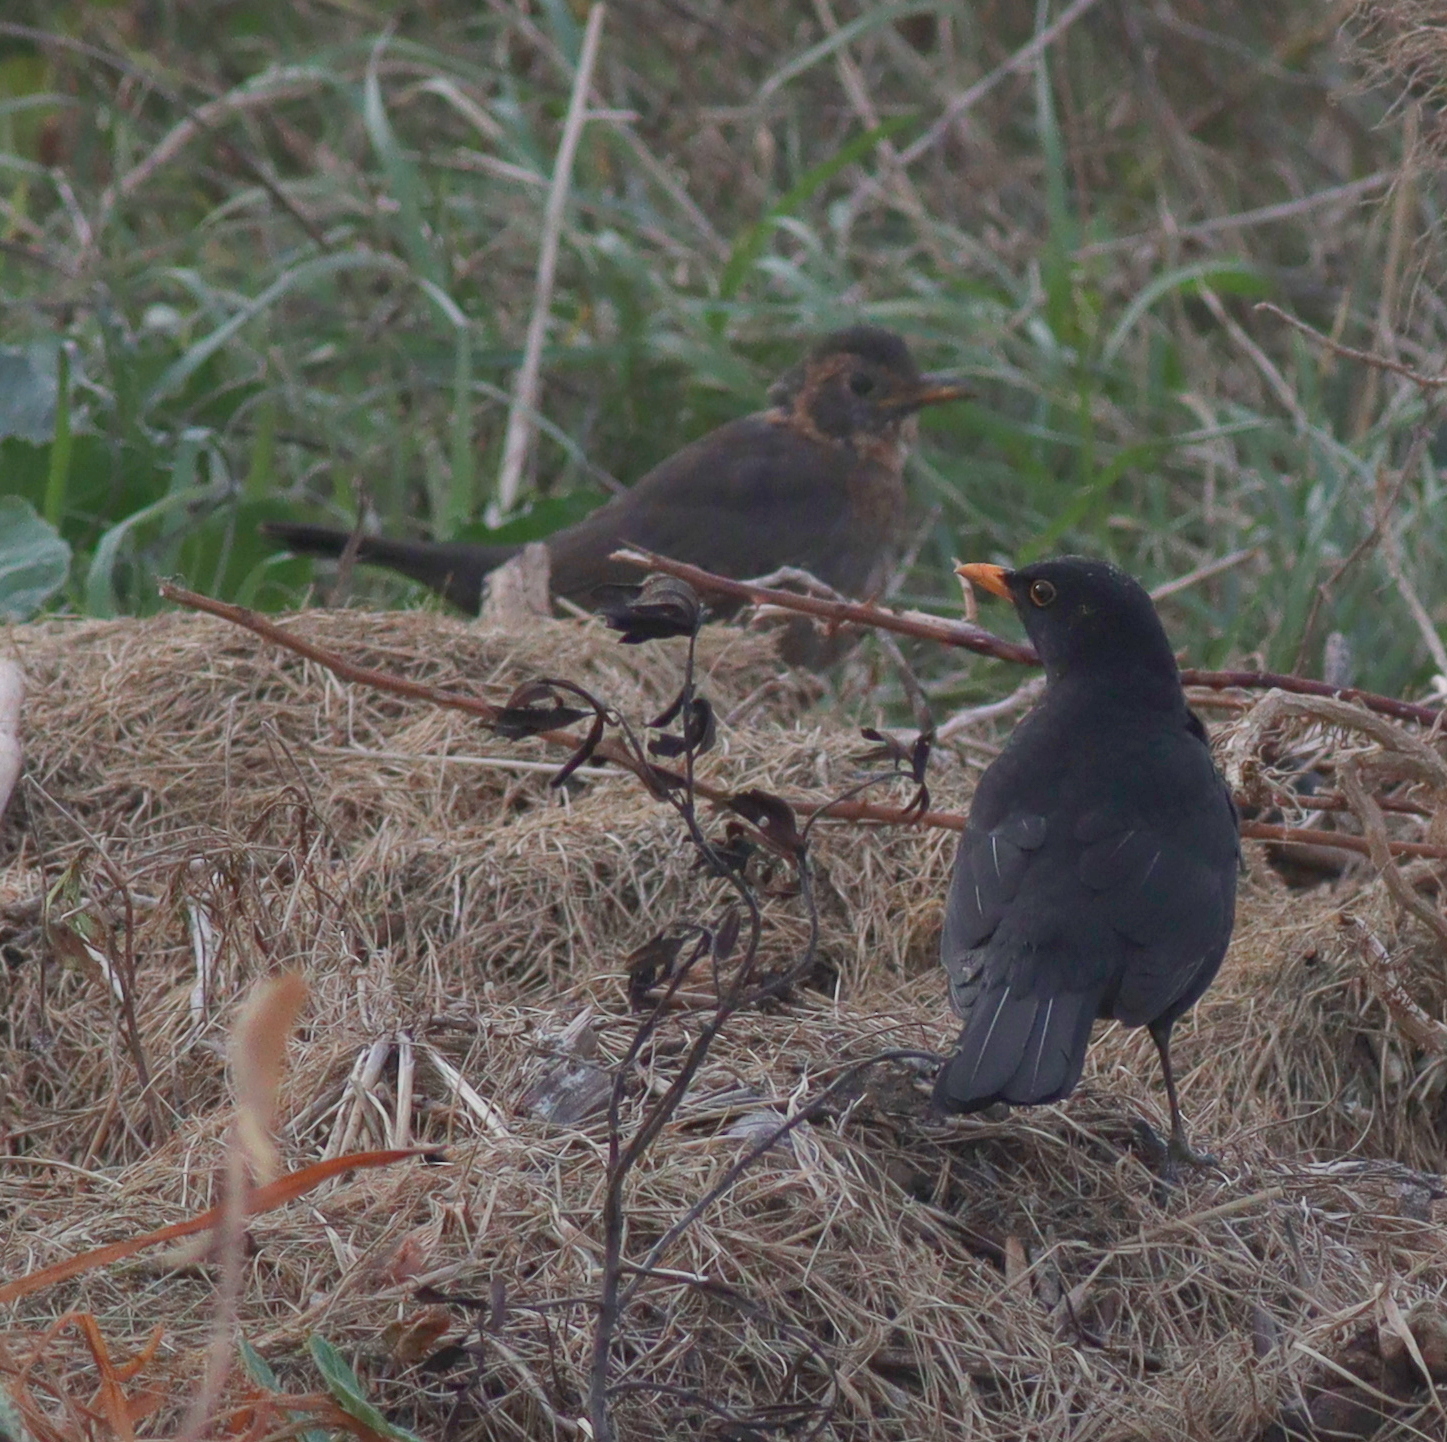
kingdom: Animalia
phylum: Chordata
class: Aves
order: Passeriformes
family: Turdidae
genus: Turdus
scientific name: Turdus merula
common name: Common blackbird
